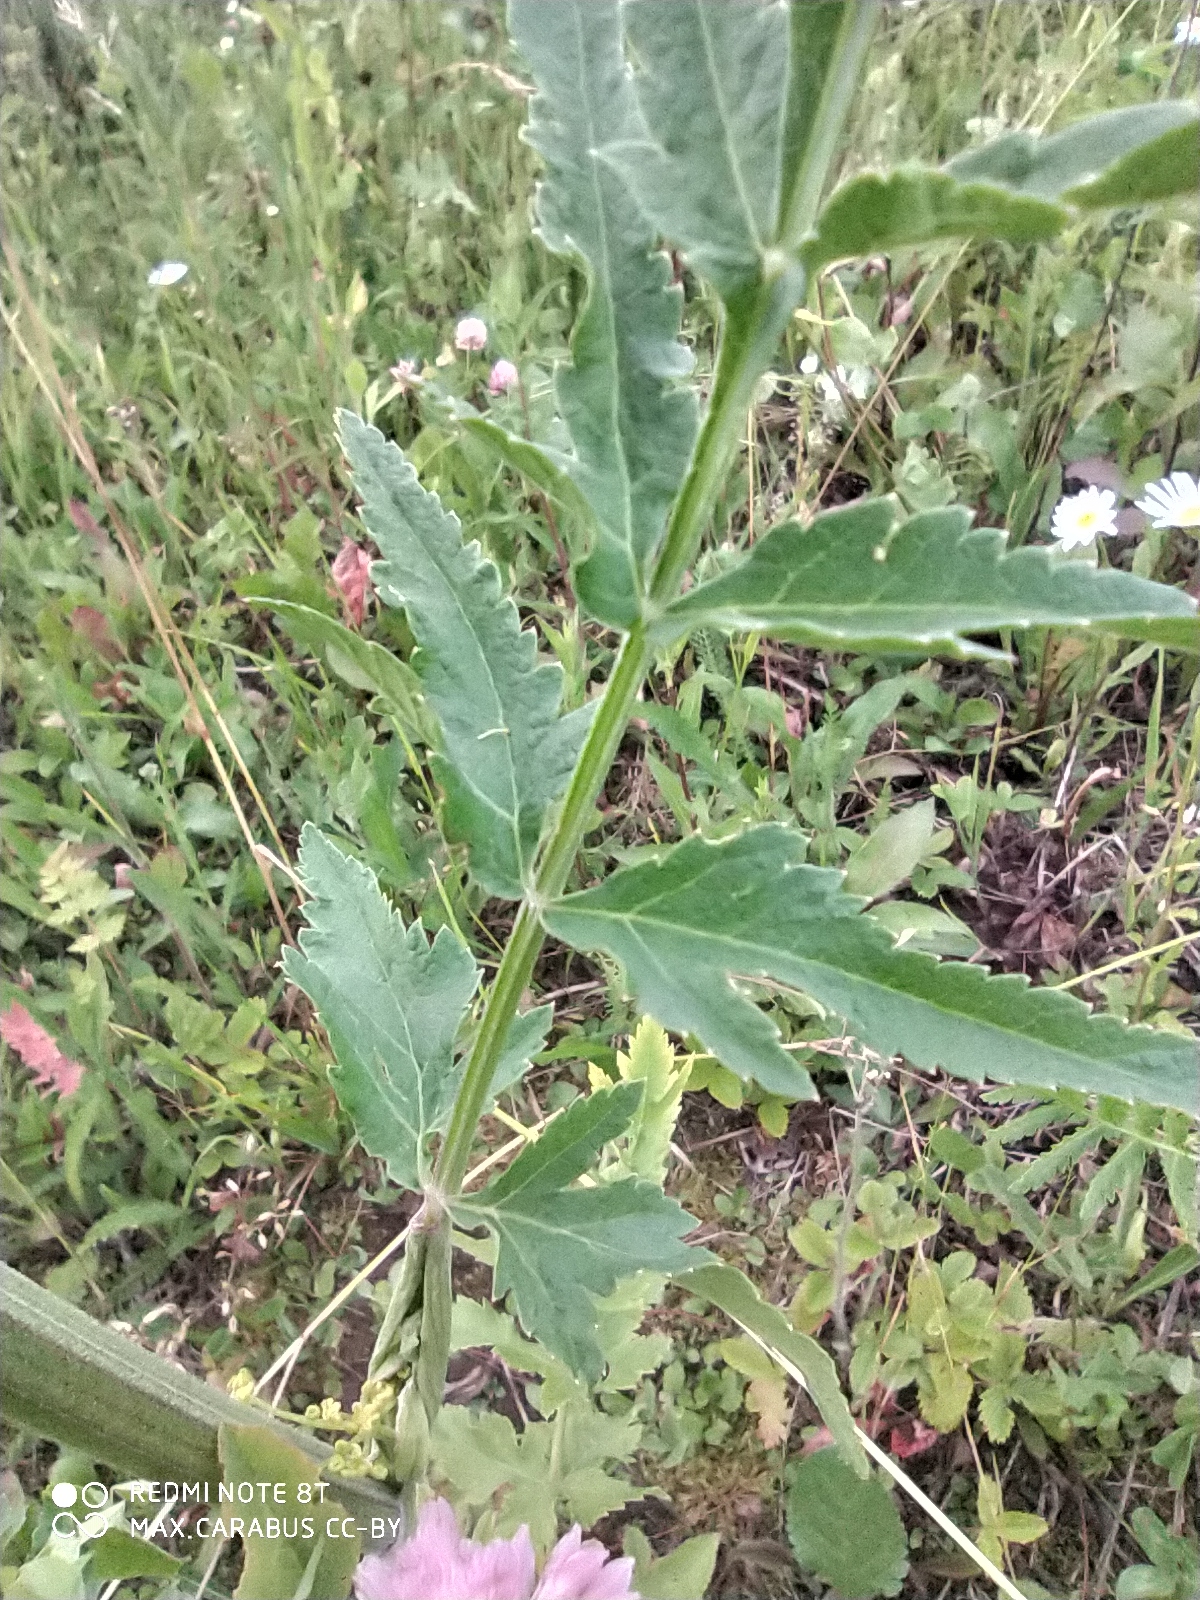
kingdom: Plantae
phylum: Tracheophyta
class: Magnoliopsida
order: Apiales
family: Apiaceae
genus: Pastinaca
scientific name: Pastinaca sativa
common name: Wild parsnip
